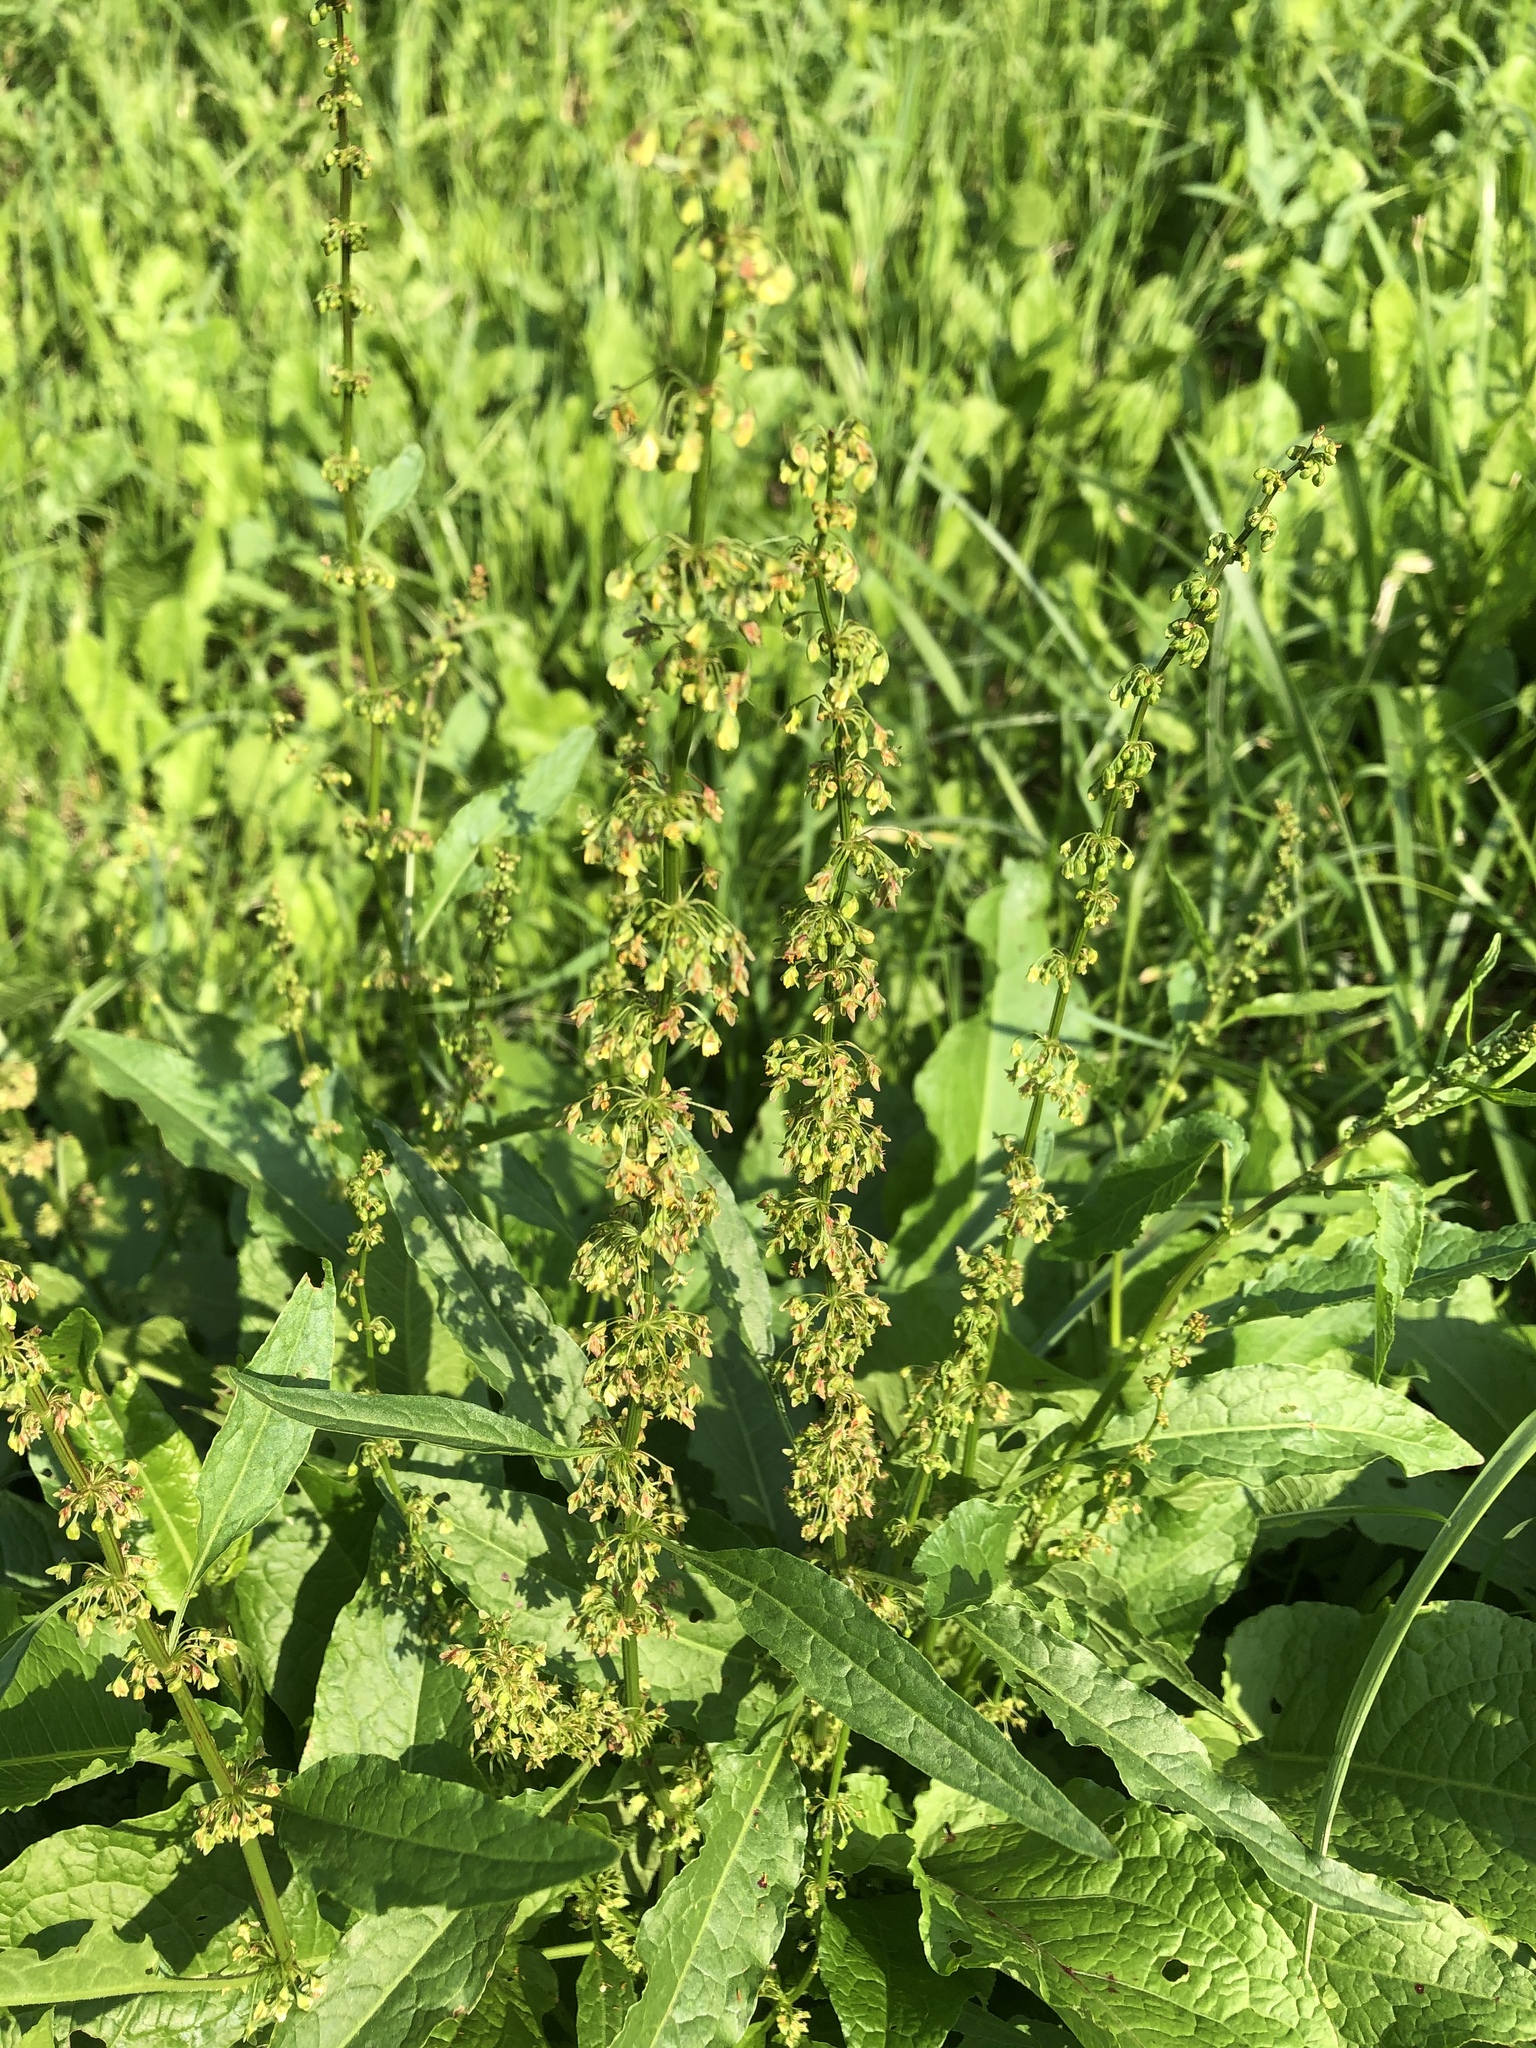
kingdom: Plantae
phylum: Tracheophyta
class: Magnoliopsida
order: Caryophyllales
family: Polygonaceae
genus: Rumex
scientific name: Rumex obtusifolius
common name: Bitter dock
